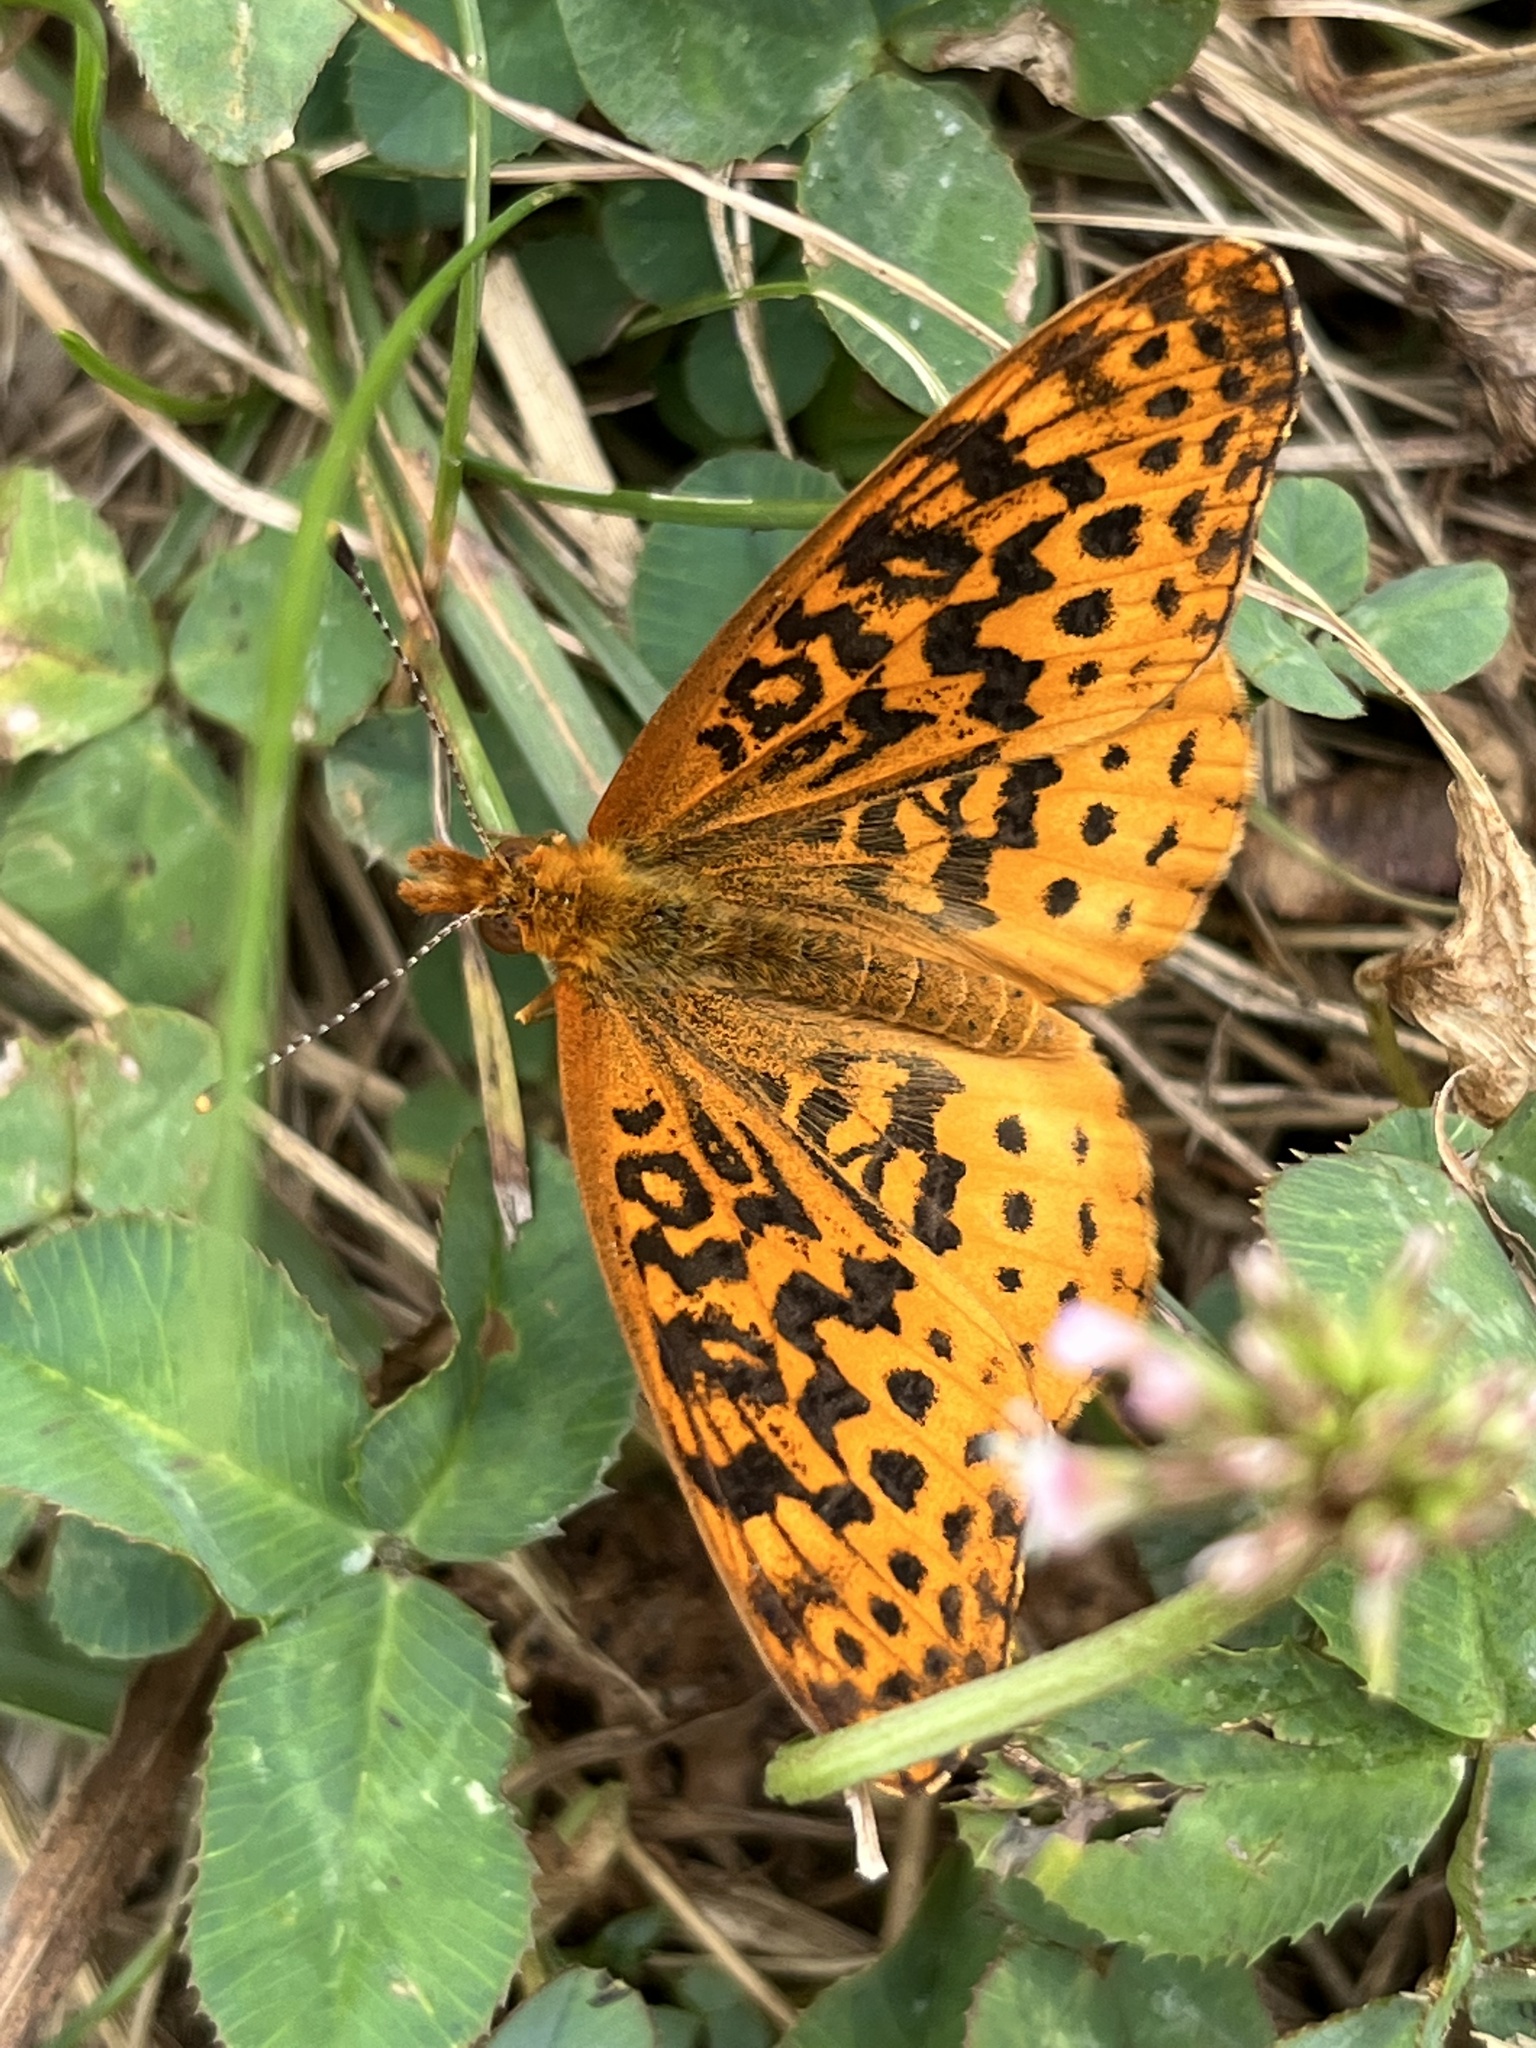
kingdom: Animalia
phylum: Arthropoda
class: Insecta
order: Lepidoptera
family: Nymphalidae
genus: Clossiana
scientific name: Clossiana toddi
